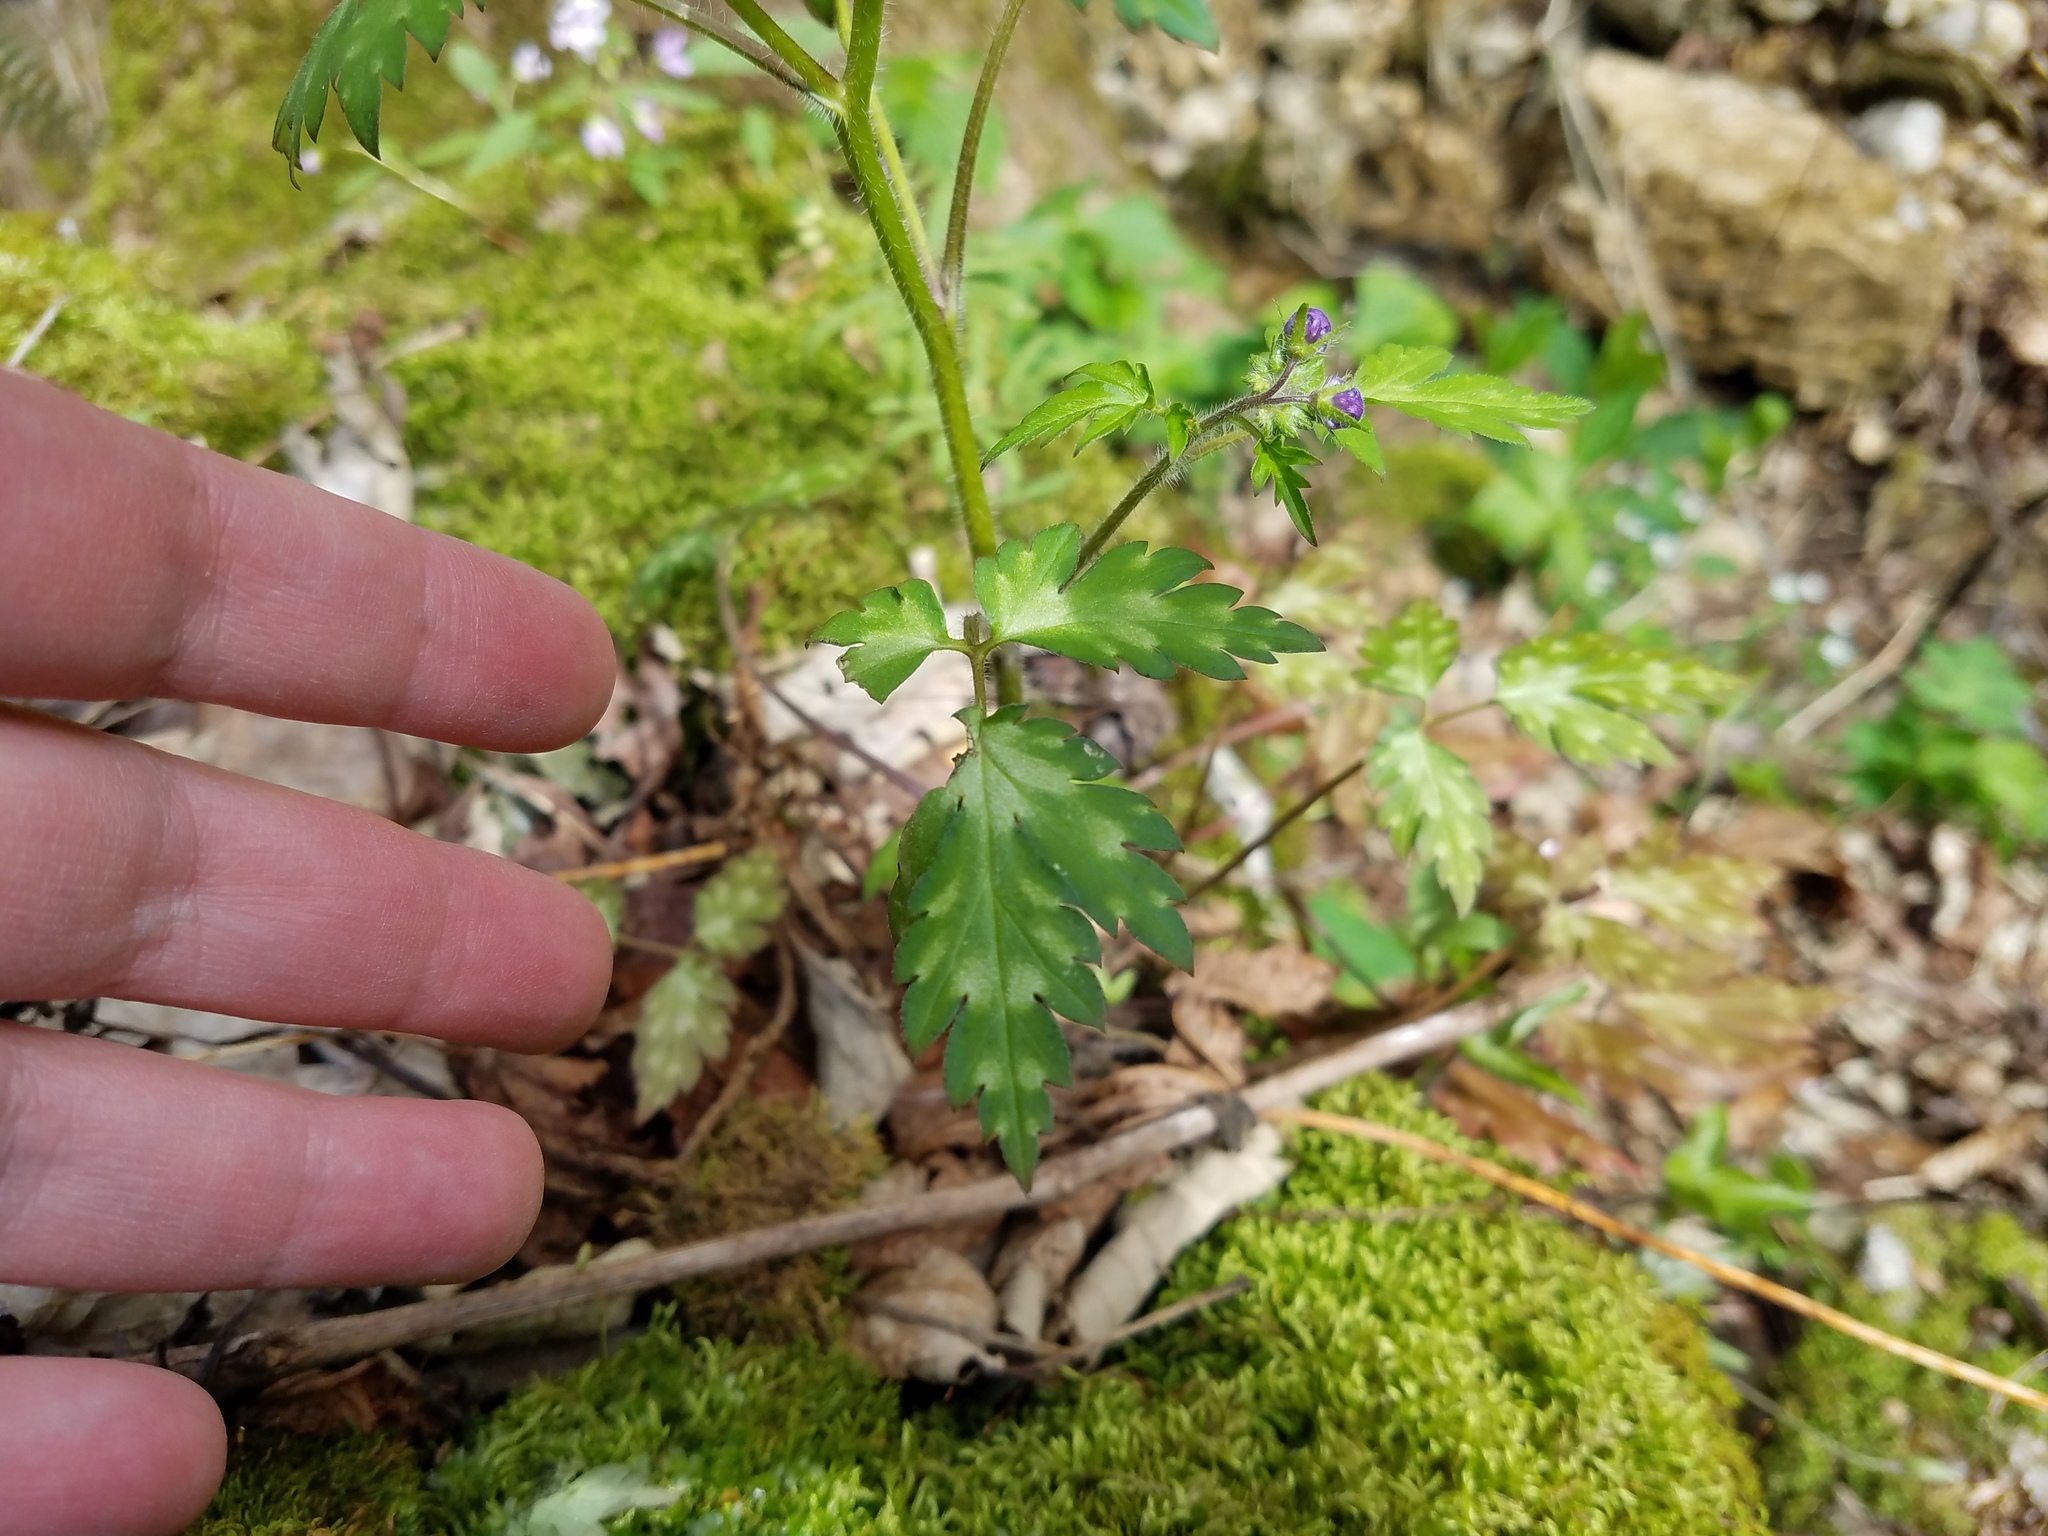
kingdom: Plantae
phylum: Tracheophyta
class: Magnoliopsida
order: Boraginales
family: Hydrophyllaceae
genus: Phacelia
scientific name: Phacelia bipinnatifida
